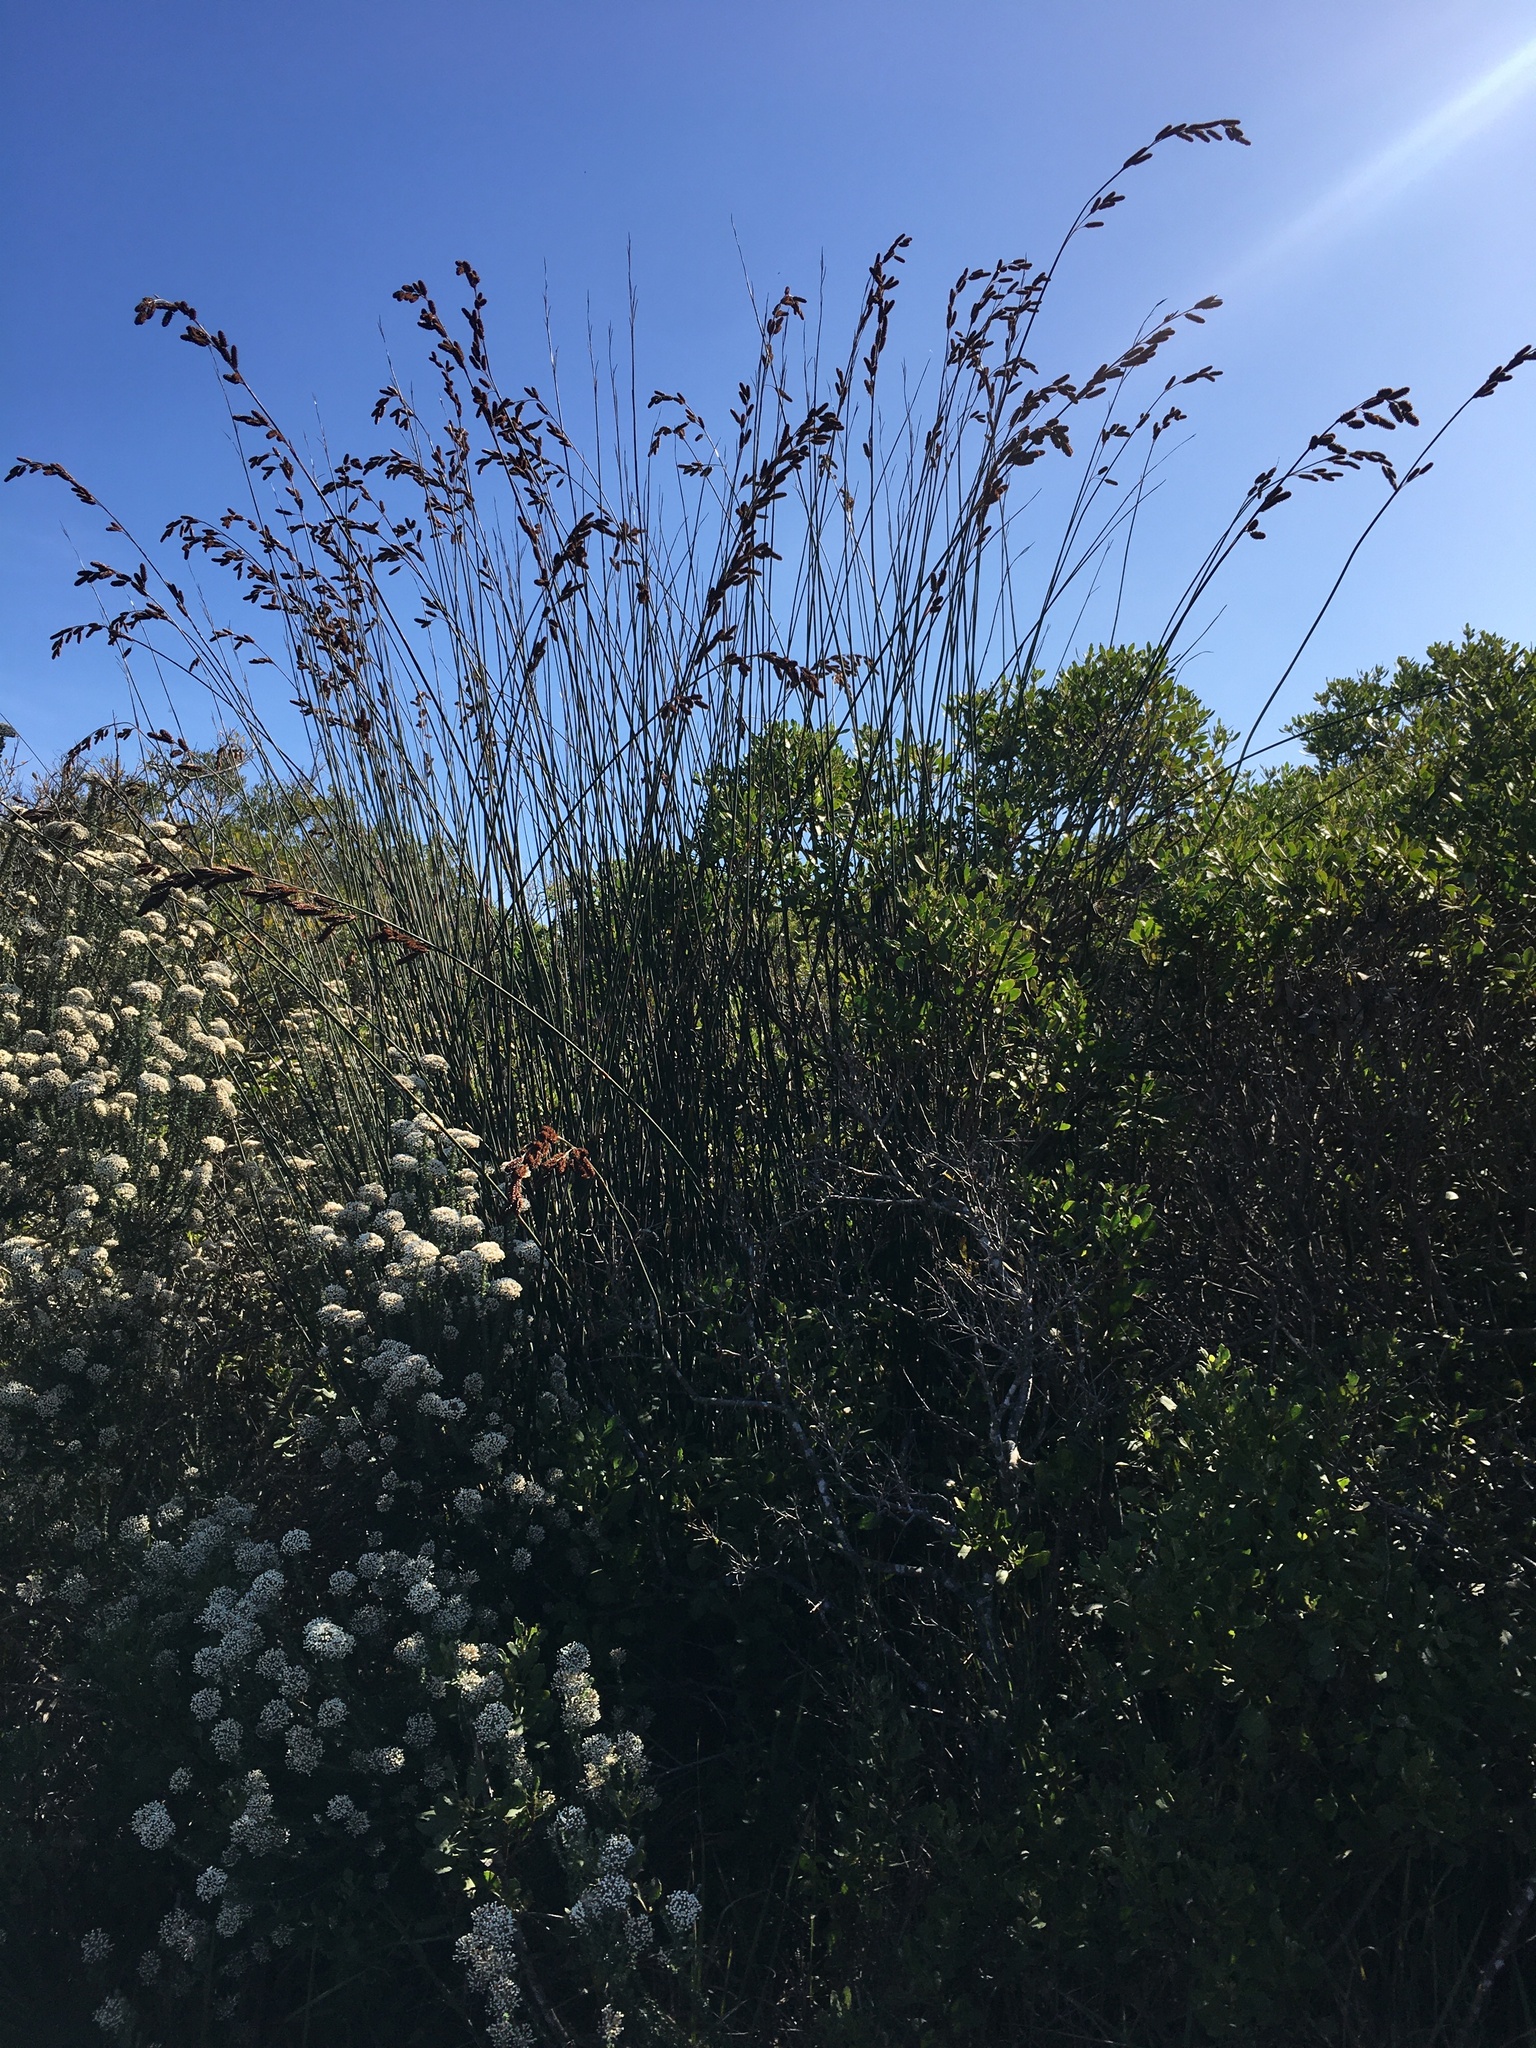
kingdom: Plantae
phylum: Tracheophyta
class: Liliopsida
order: Poales
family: Restionaceae
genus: Thamnochortus
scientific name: Thamnochortus insignis
